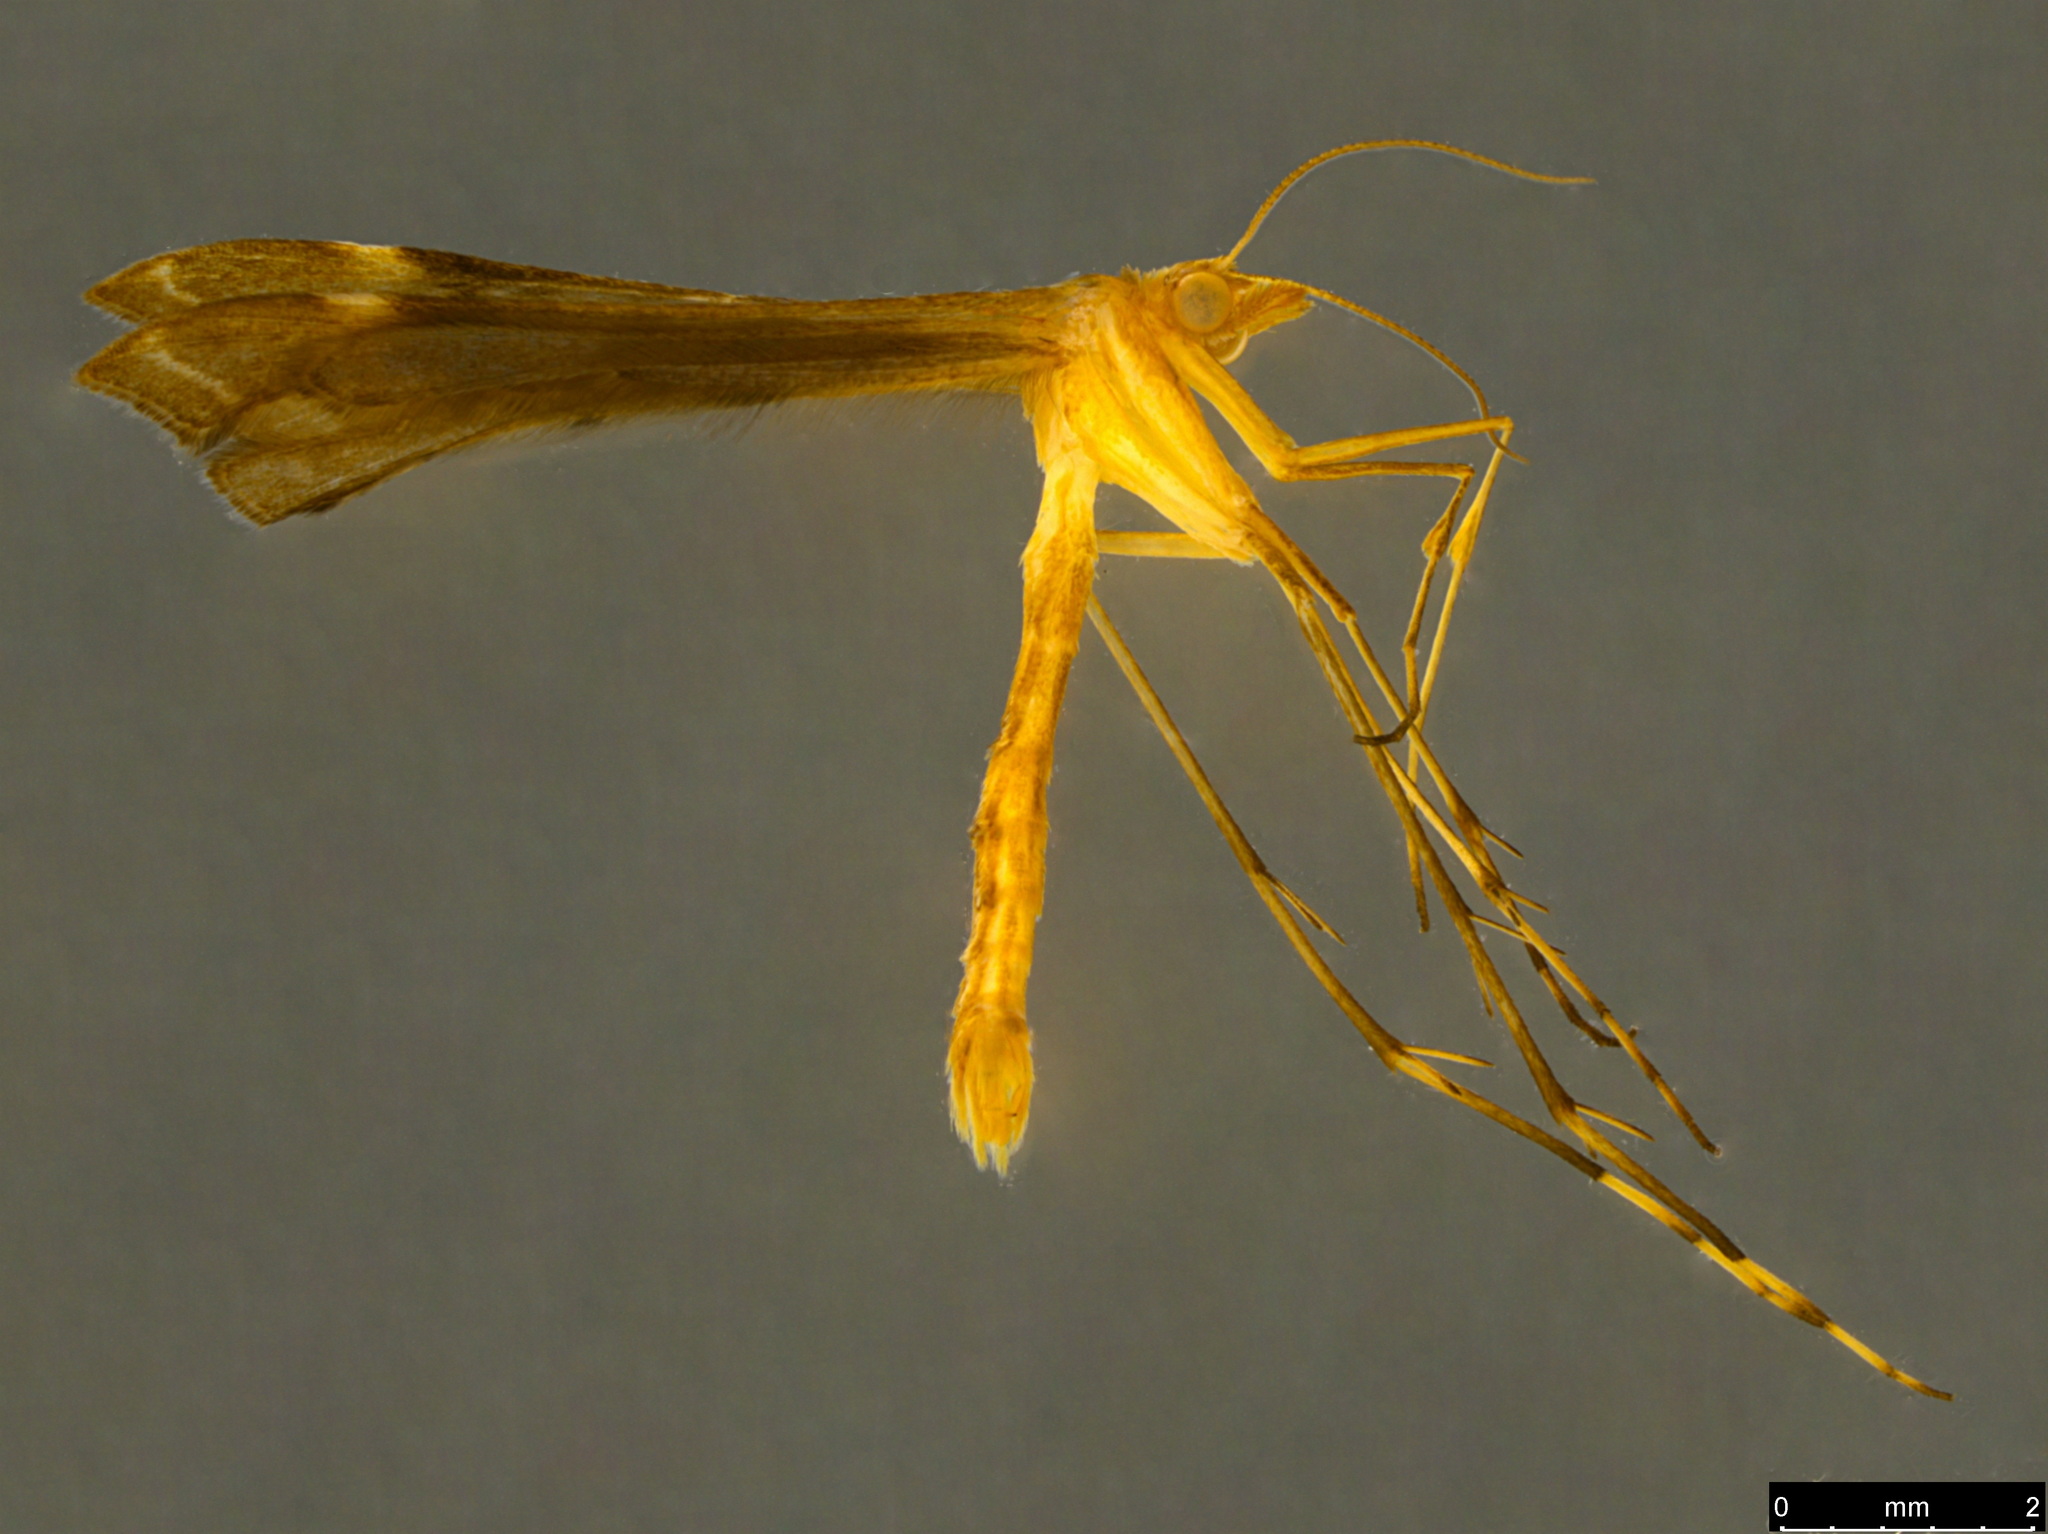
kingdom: Animalia
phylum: Arthropoda
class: Insecta
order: Lepidoptera
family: Pterophoridae
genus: Sinpunctiptilia
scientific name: Sinpunctiptilia emissalis
